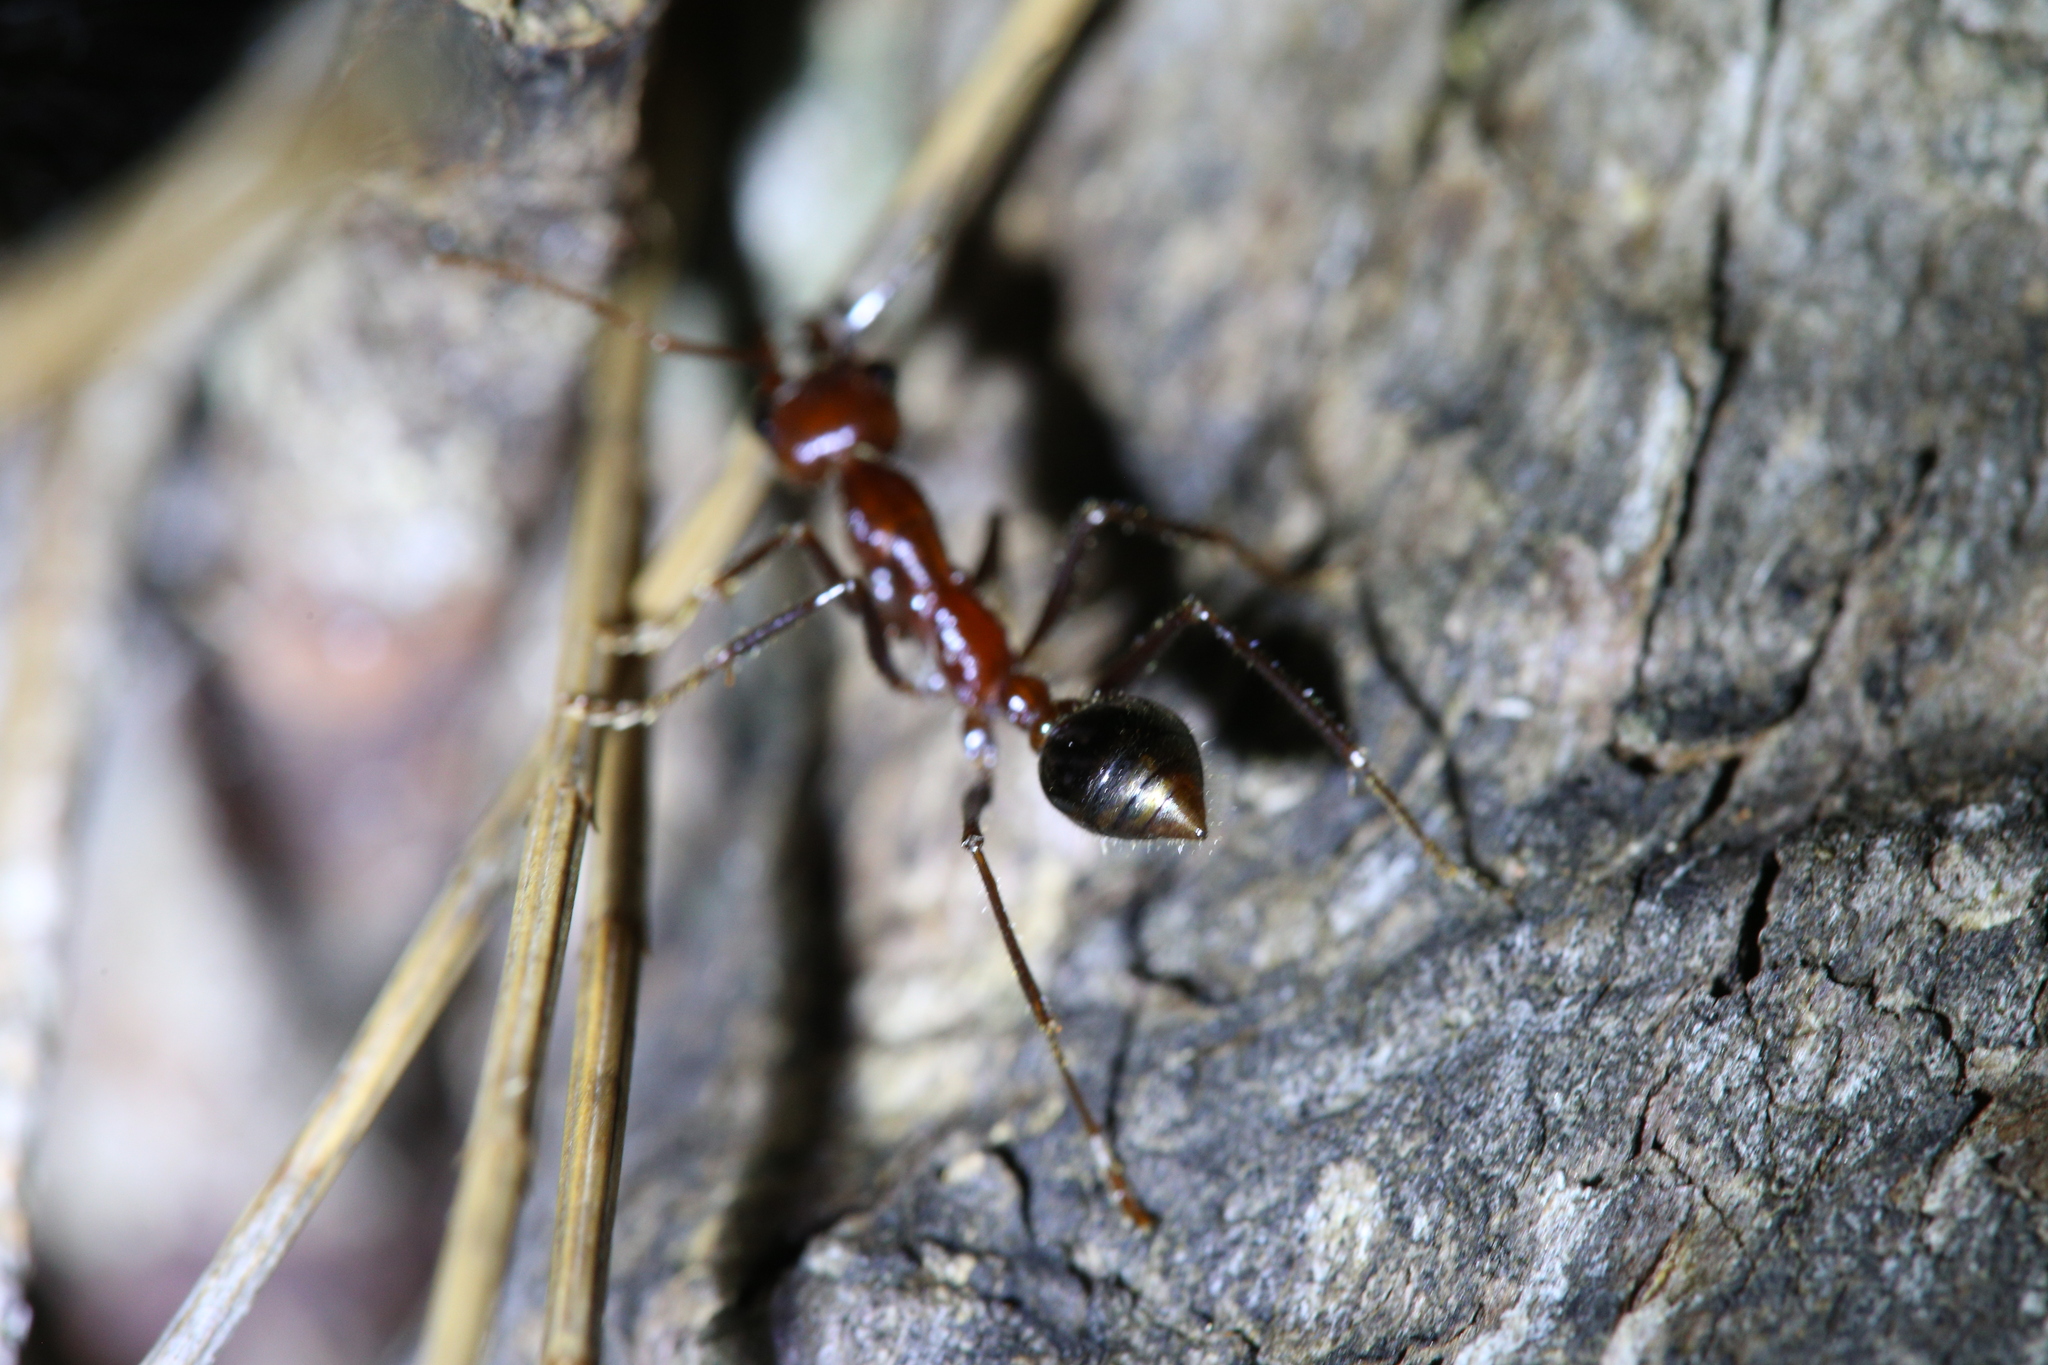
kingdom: Animalia
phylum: Arthropoda
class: Insecta
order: Hymenoptera
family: Formicidae
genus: Myrmecia
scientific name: Myrmecia regularis
